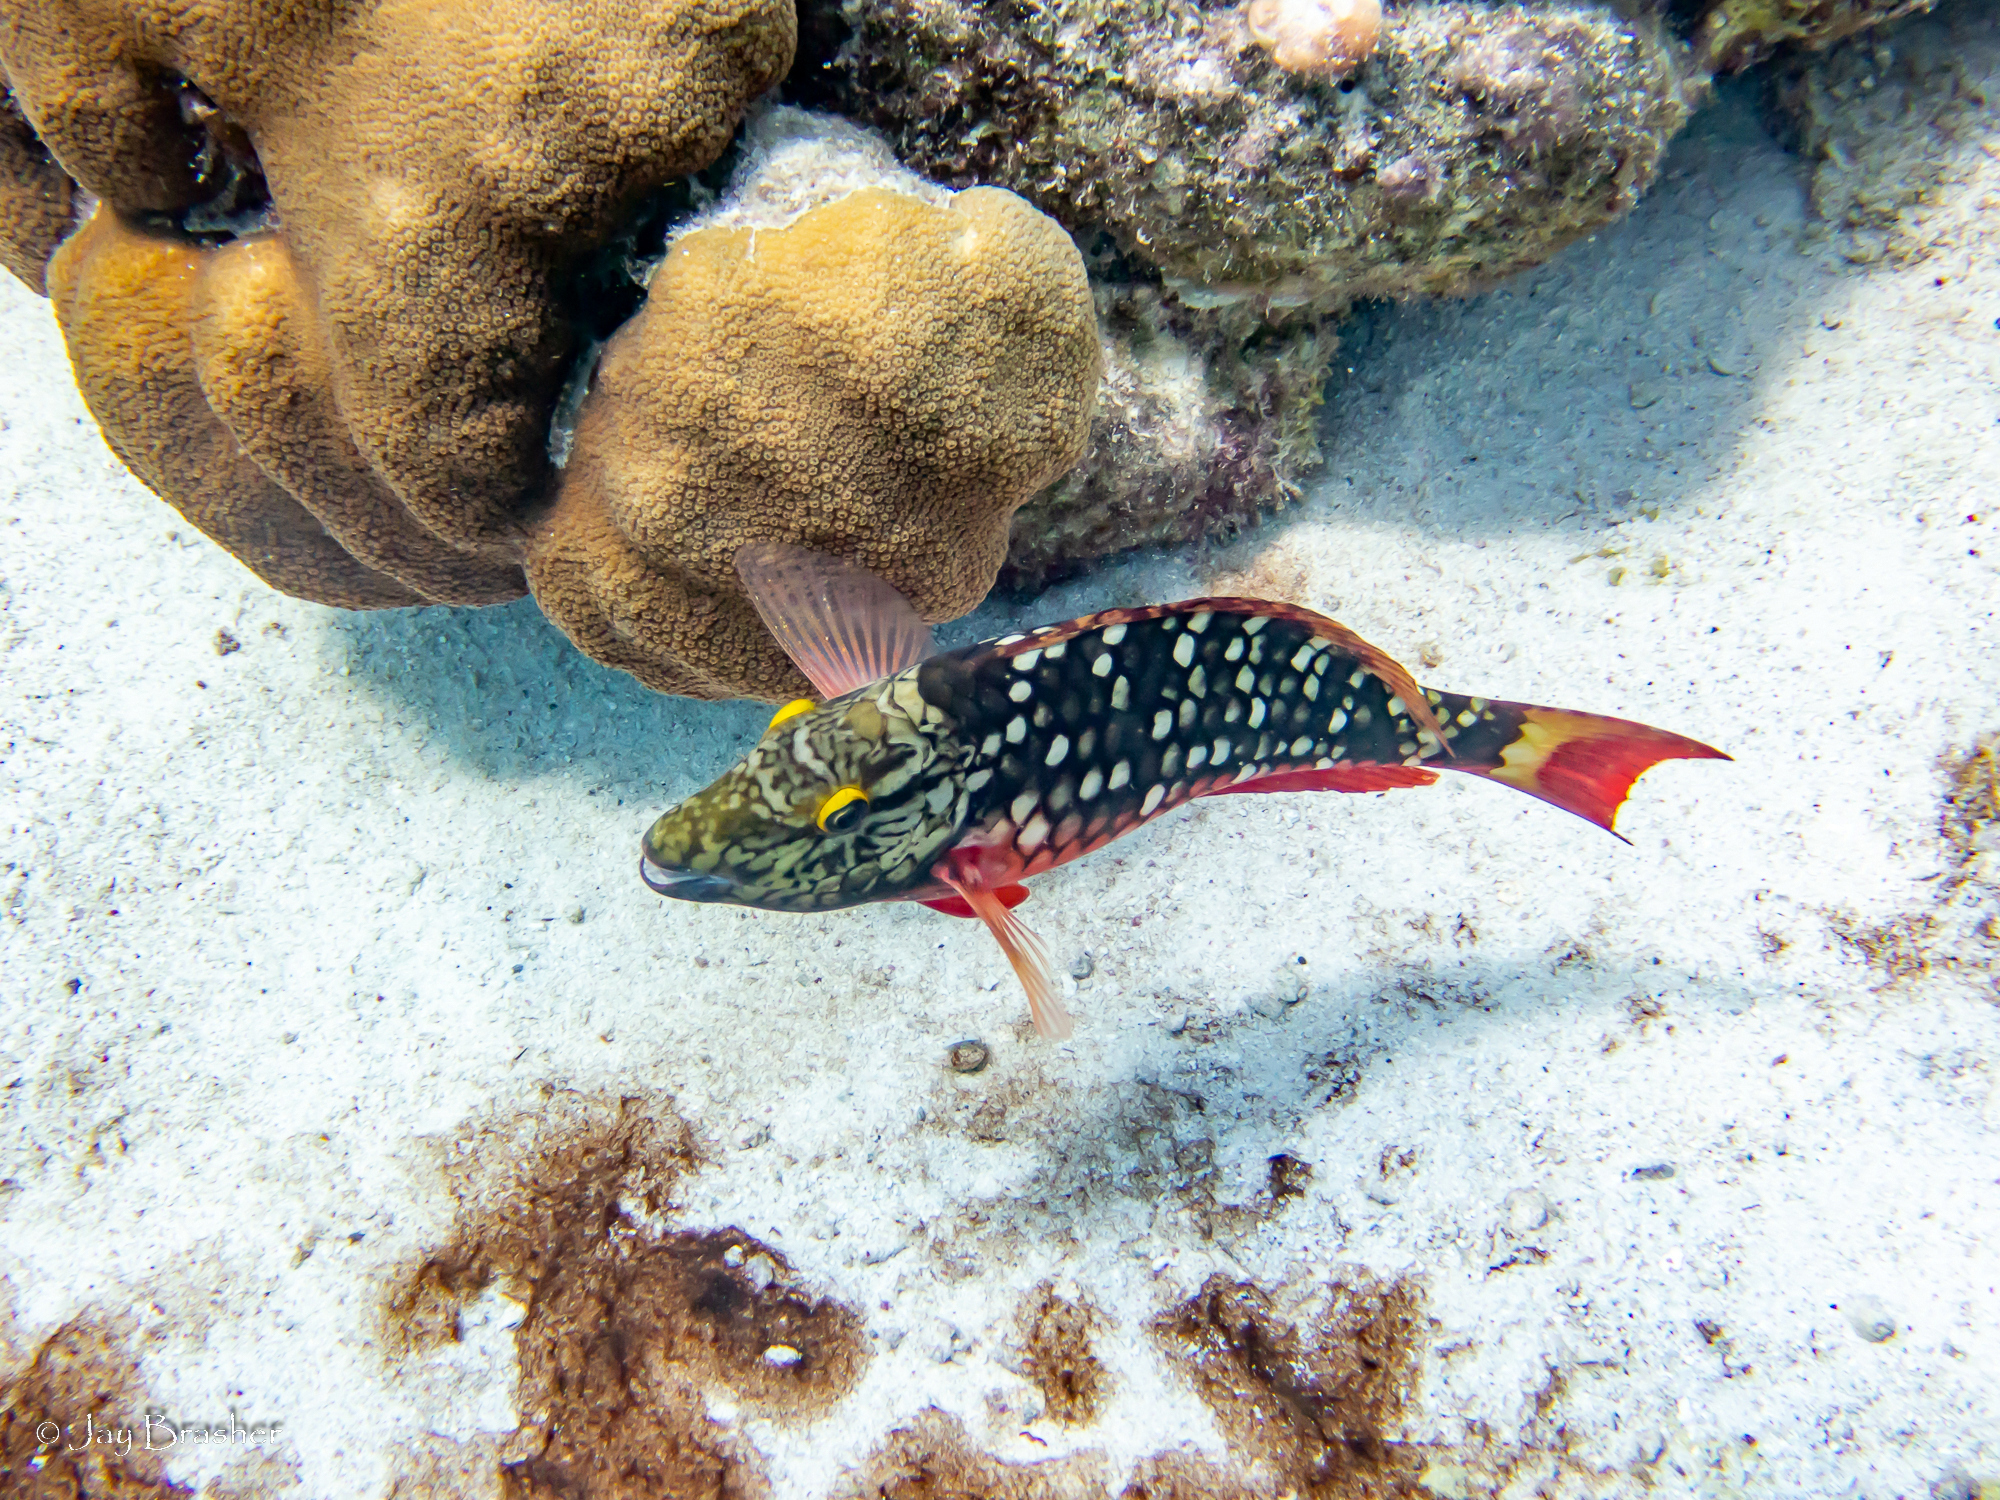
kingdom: Animalia
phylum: Chordata
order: Perciformes
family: Scaridae
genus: Sparisoma
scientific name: Sparisoma viride
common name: Stoplight parrotfish
